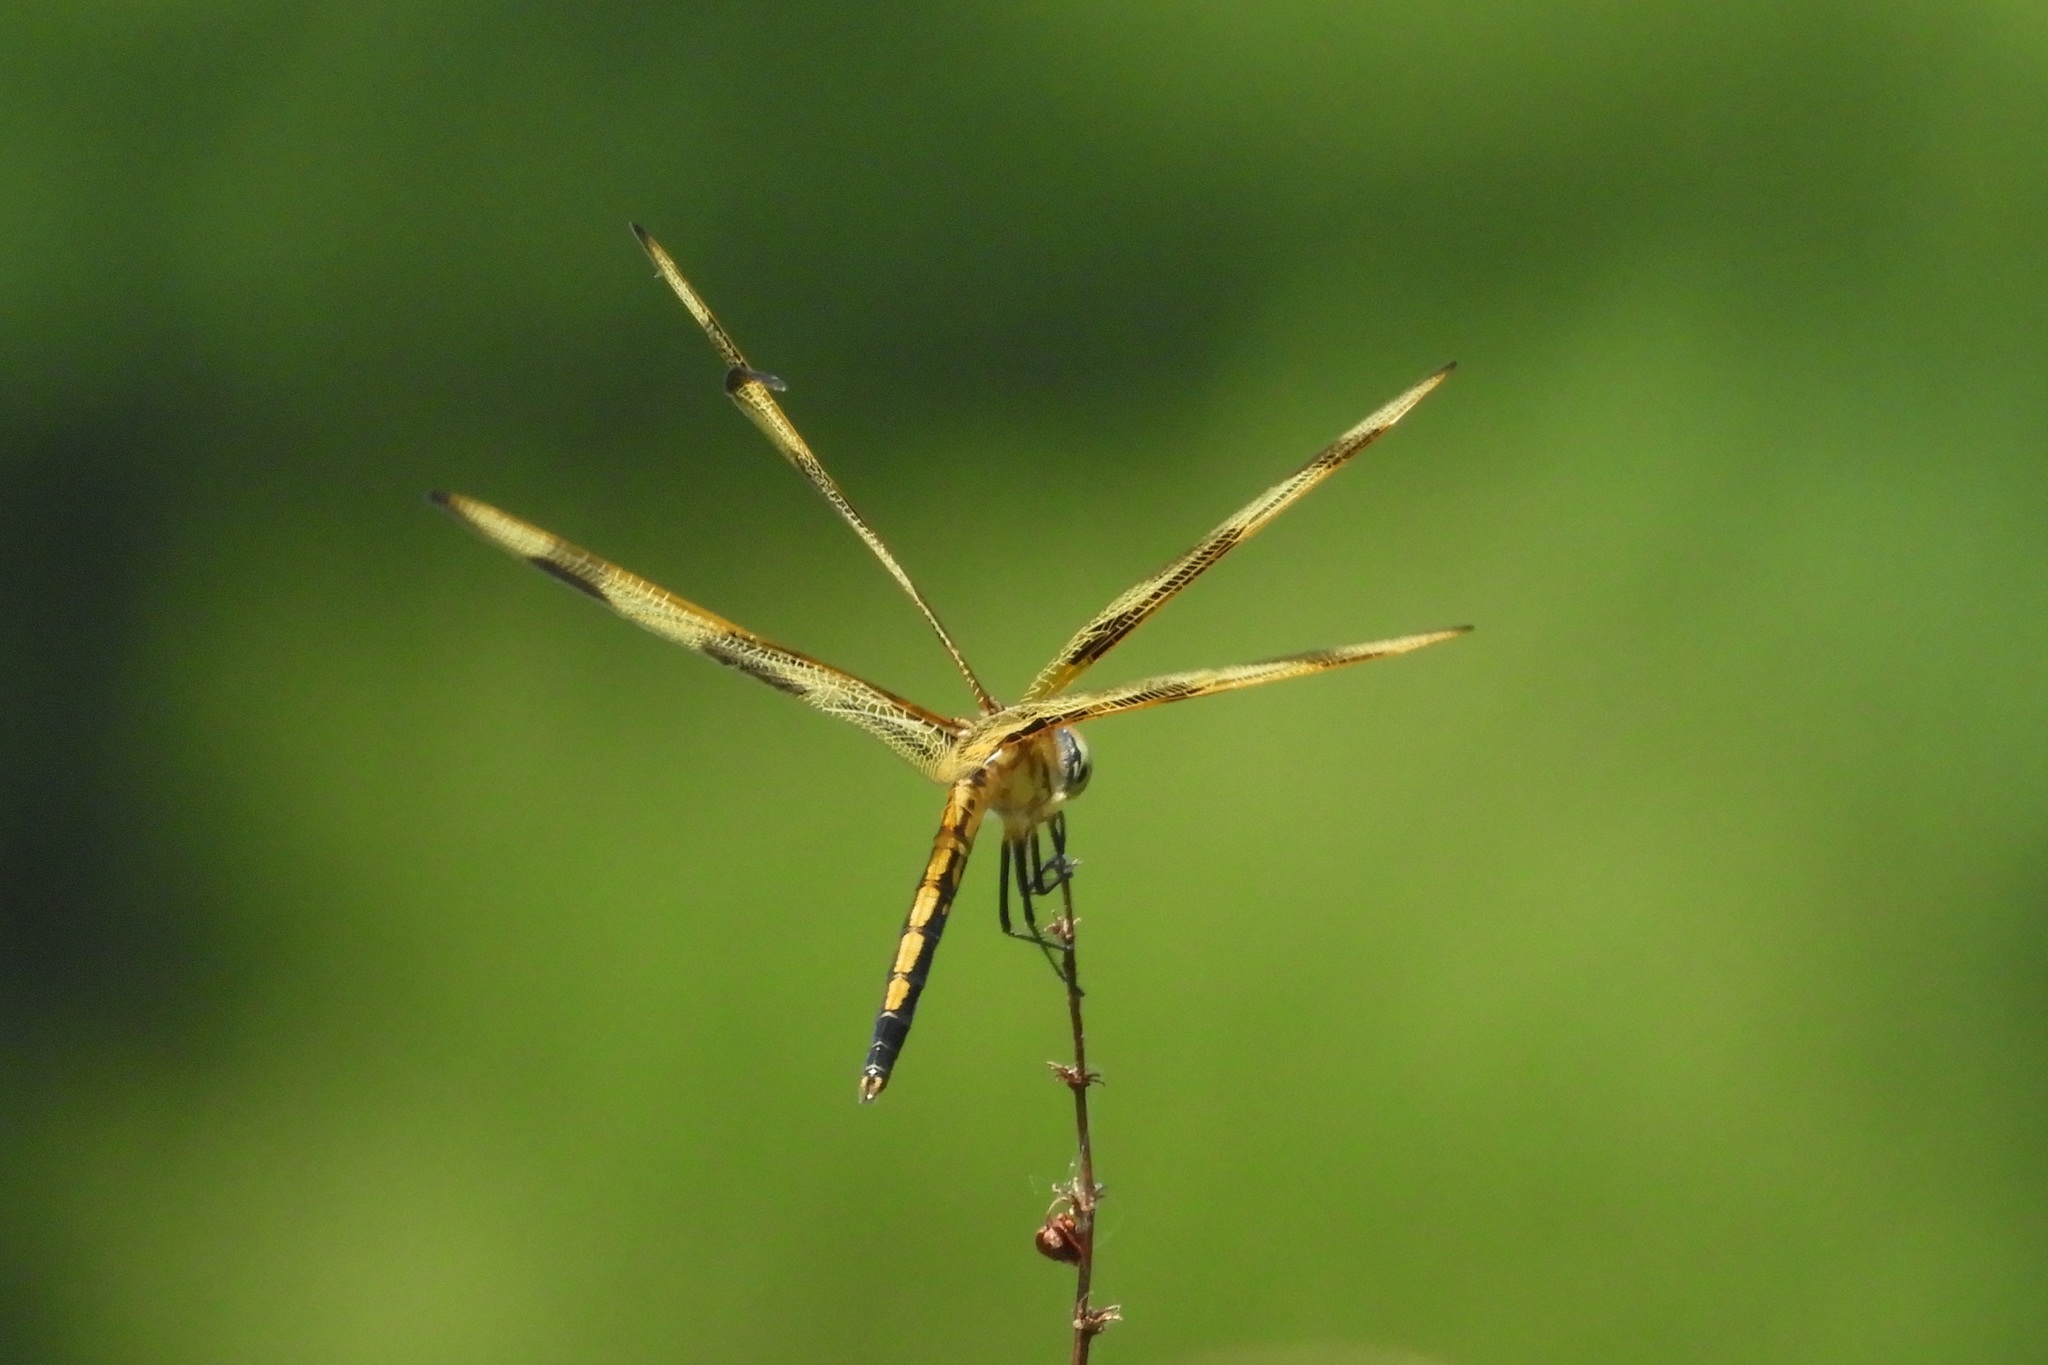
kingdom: Animalia
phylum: Arthropoda
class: Insecta
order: Odonata
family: Libellulidae
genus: Celithemis
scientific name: Celithemis eponina
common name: Halloween pennant
